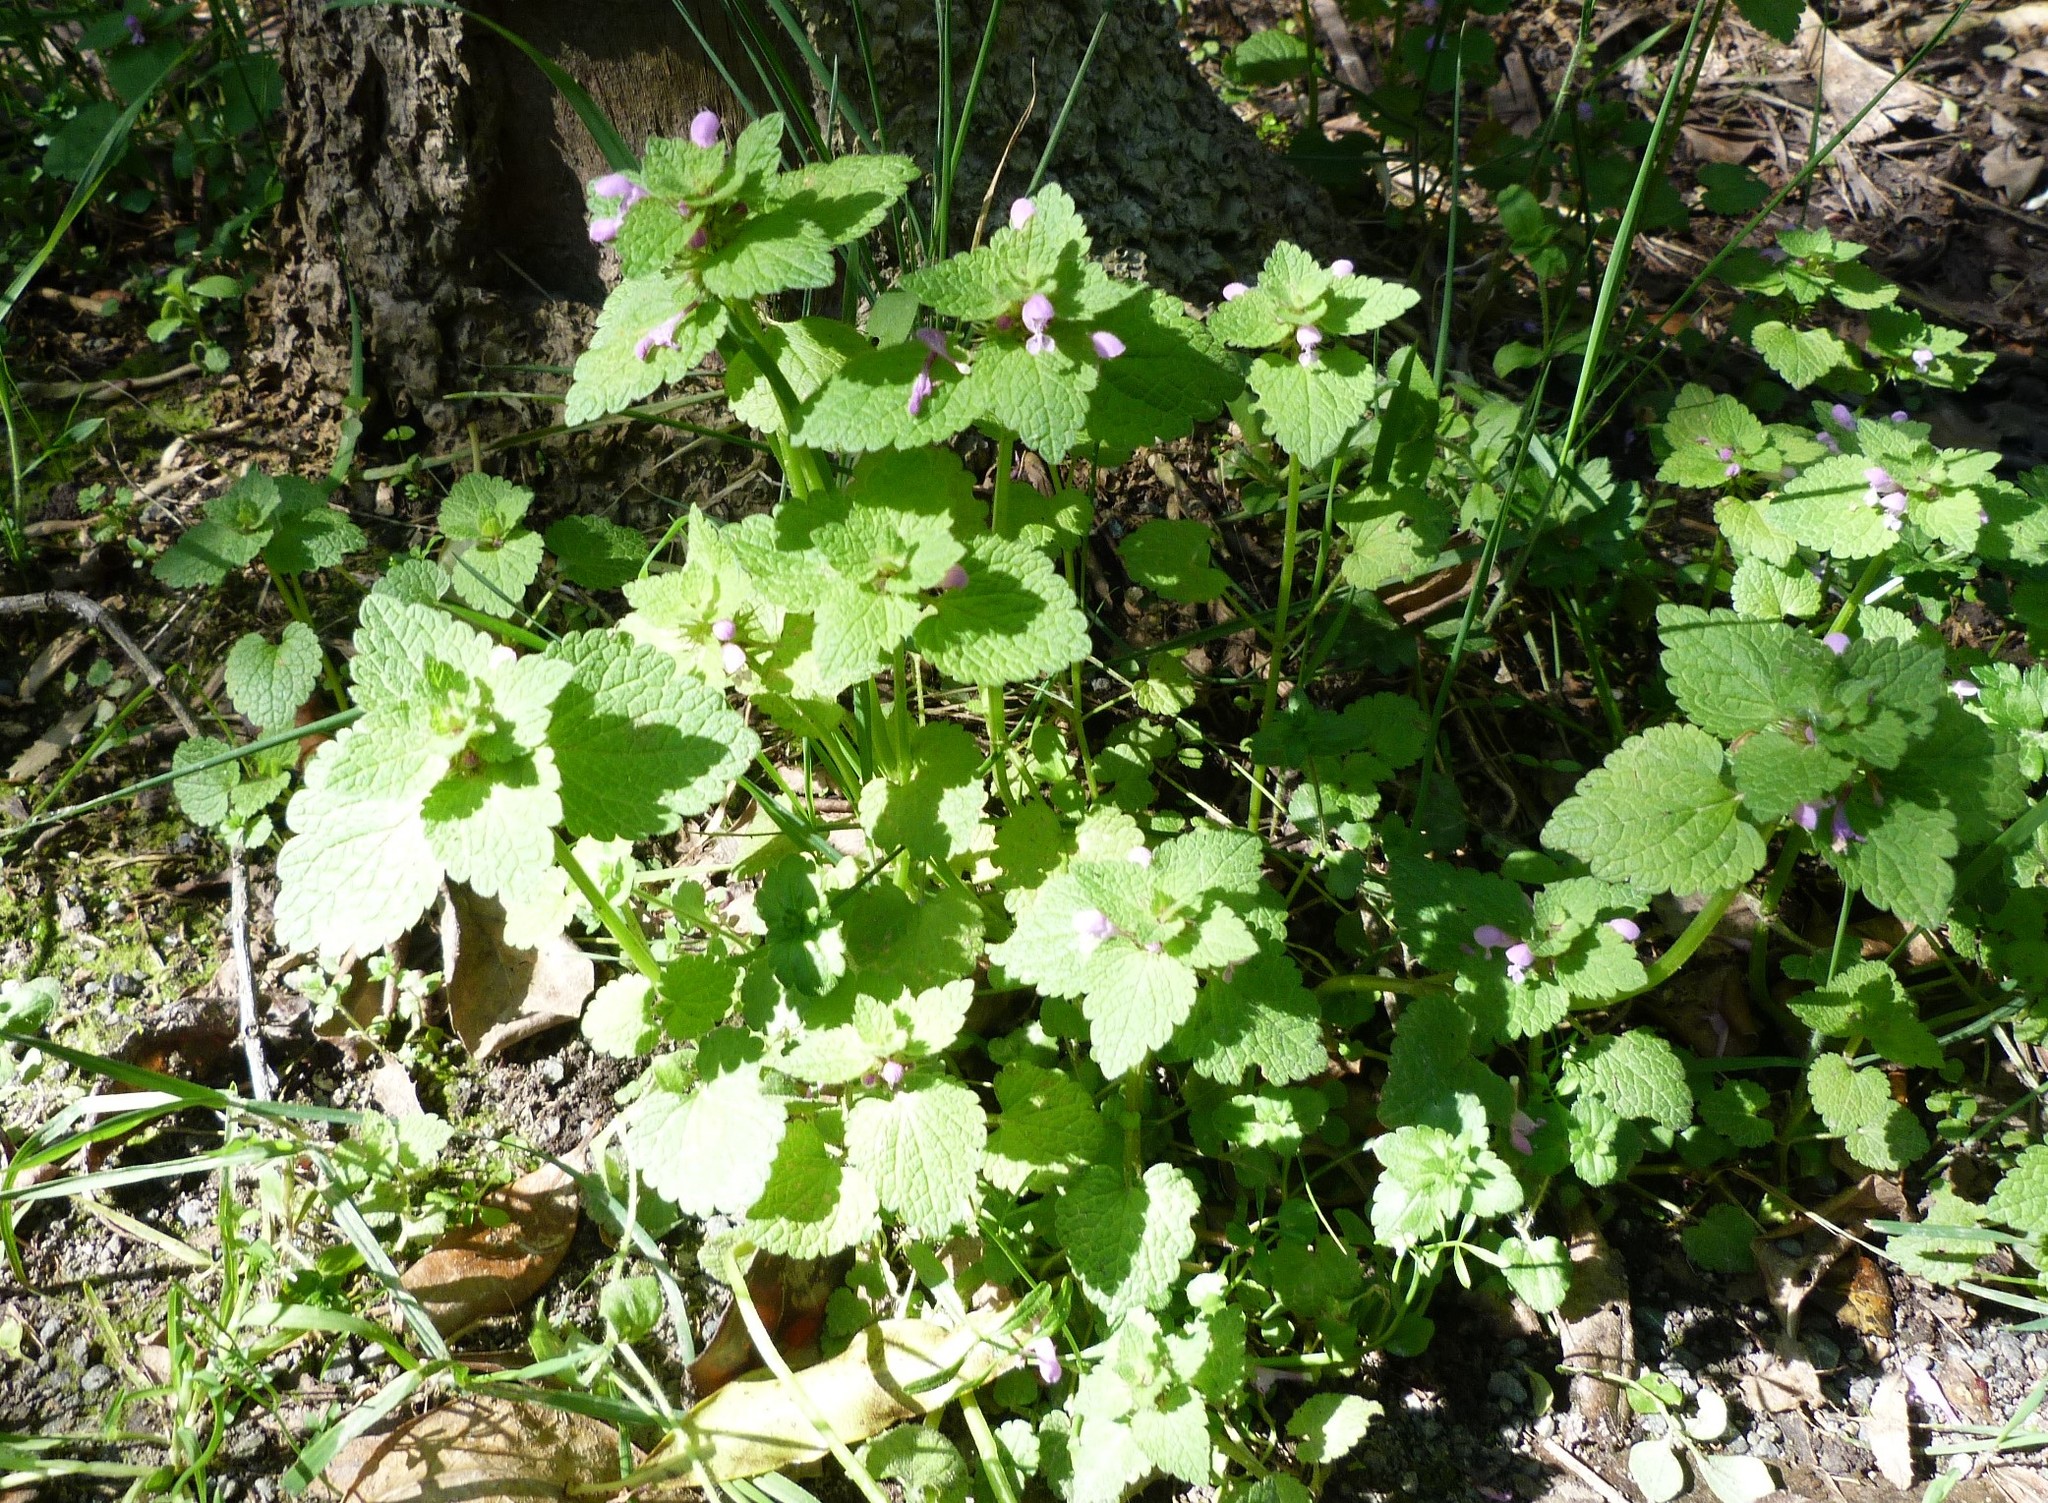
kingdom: Plantae
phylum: Tracheophyta
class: Magnoliopsida
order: Lamiales
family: Lamiaceae
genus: Lamium
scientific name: Lamium purpureum
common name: Red dead-nettle
